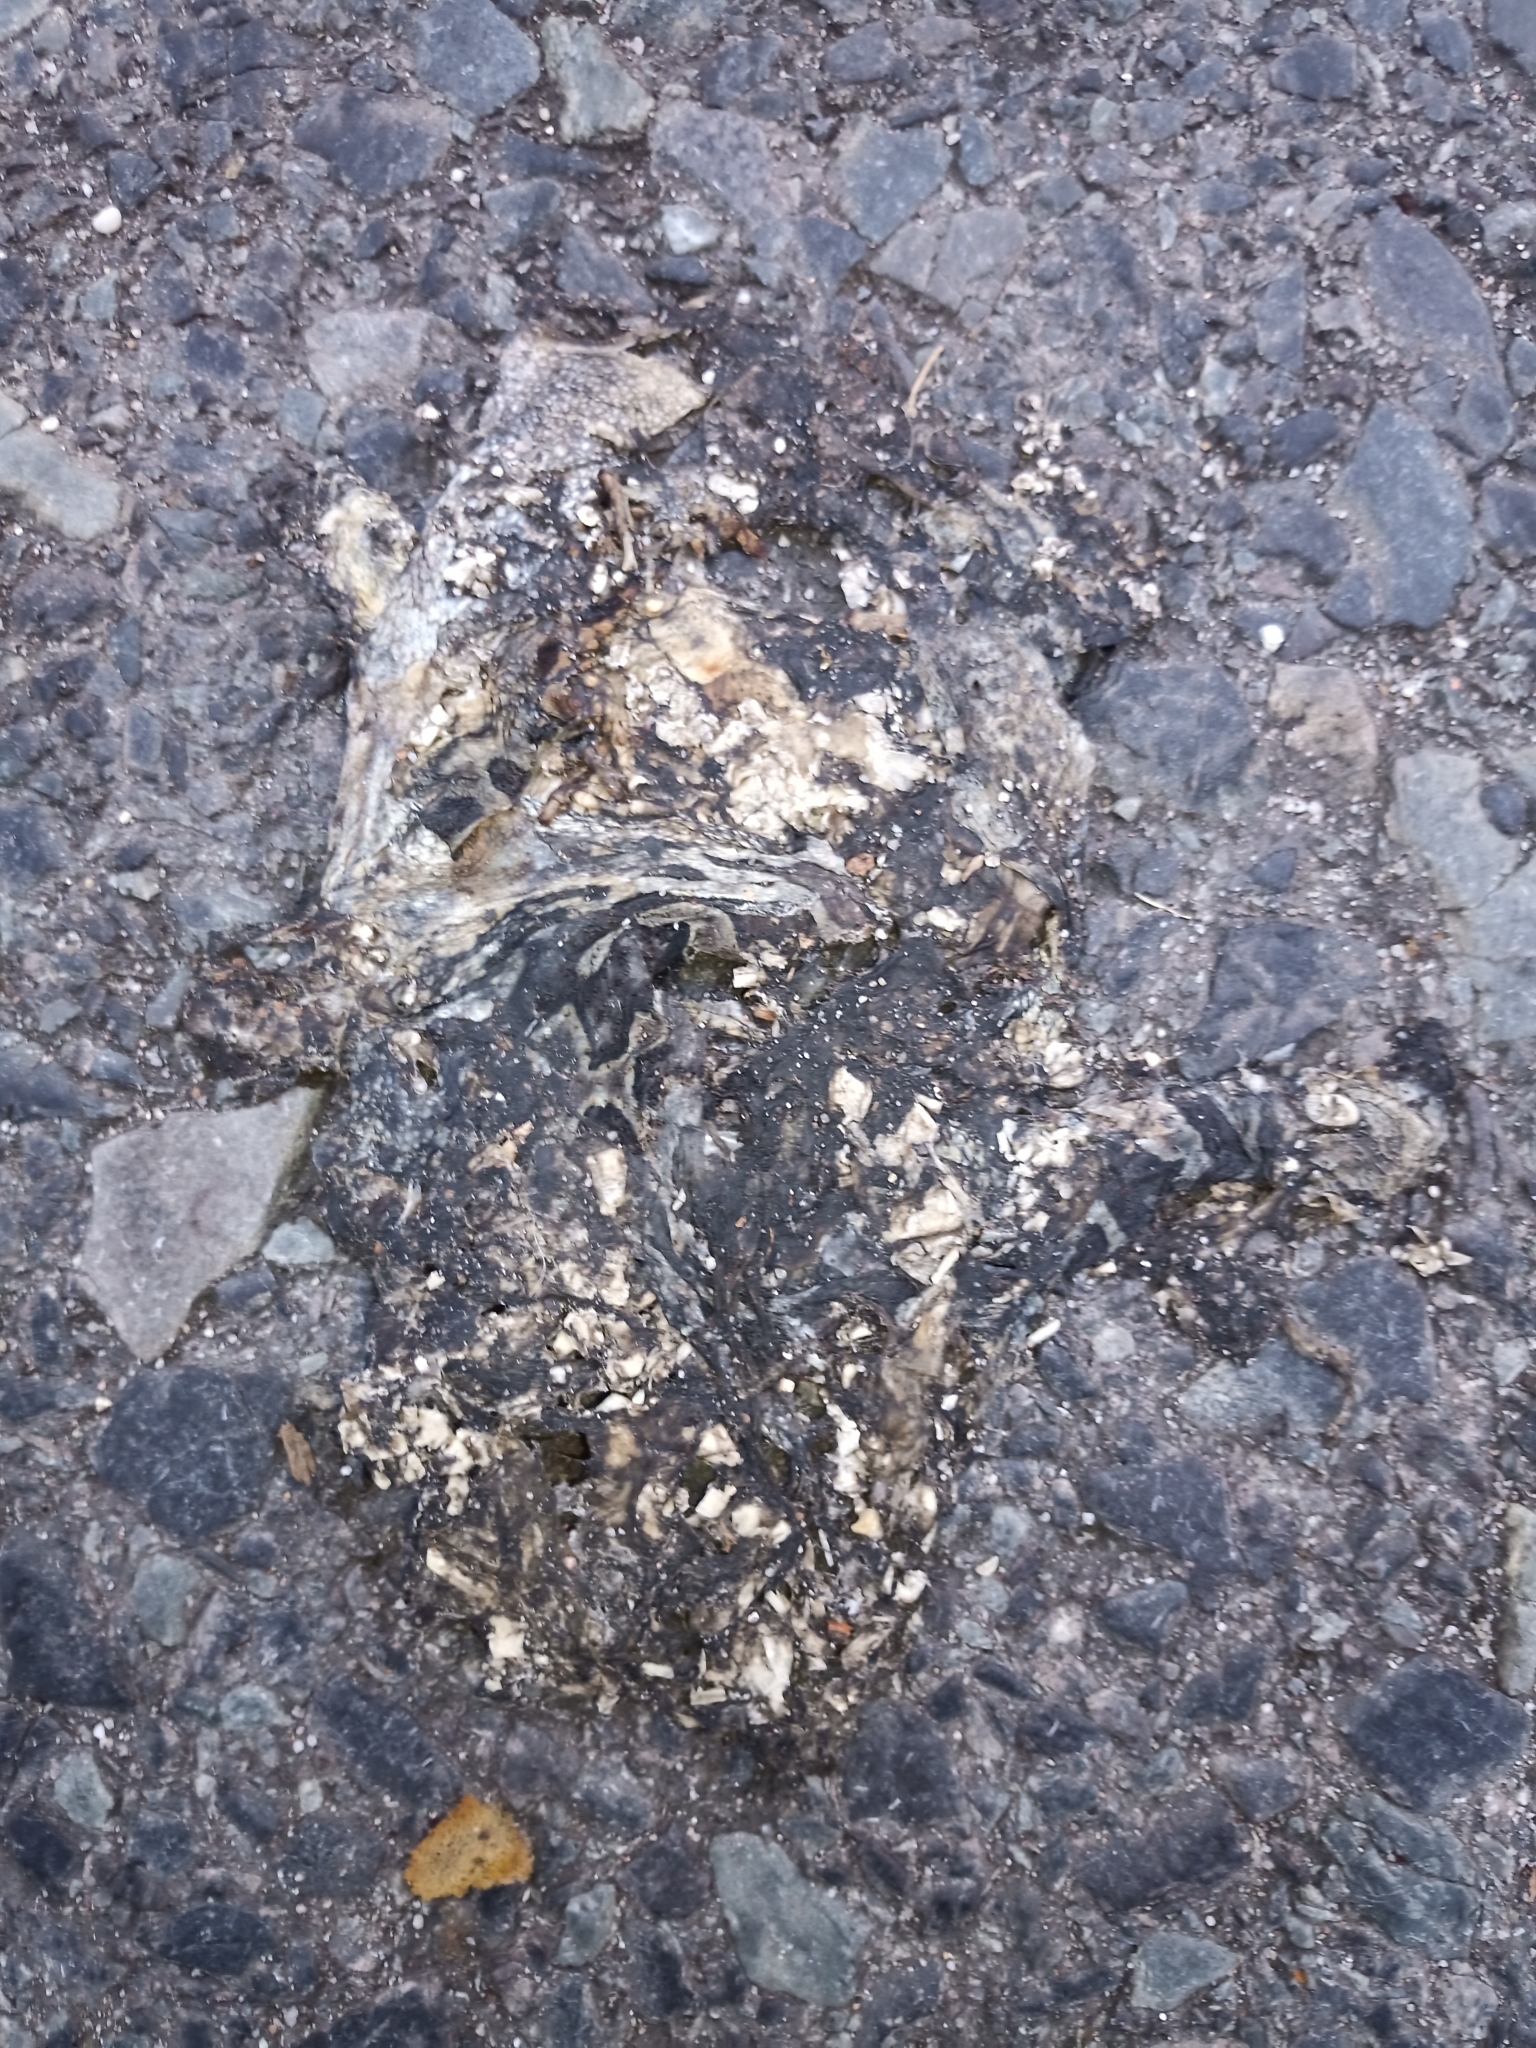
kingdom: Animalia
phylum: Chordata
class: Amphibia
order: Anura
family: Bufonidae
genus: Sclerophrys
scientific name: Sclerophrys pantherina
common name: Panther toad
